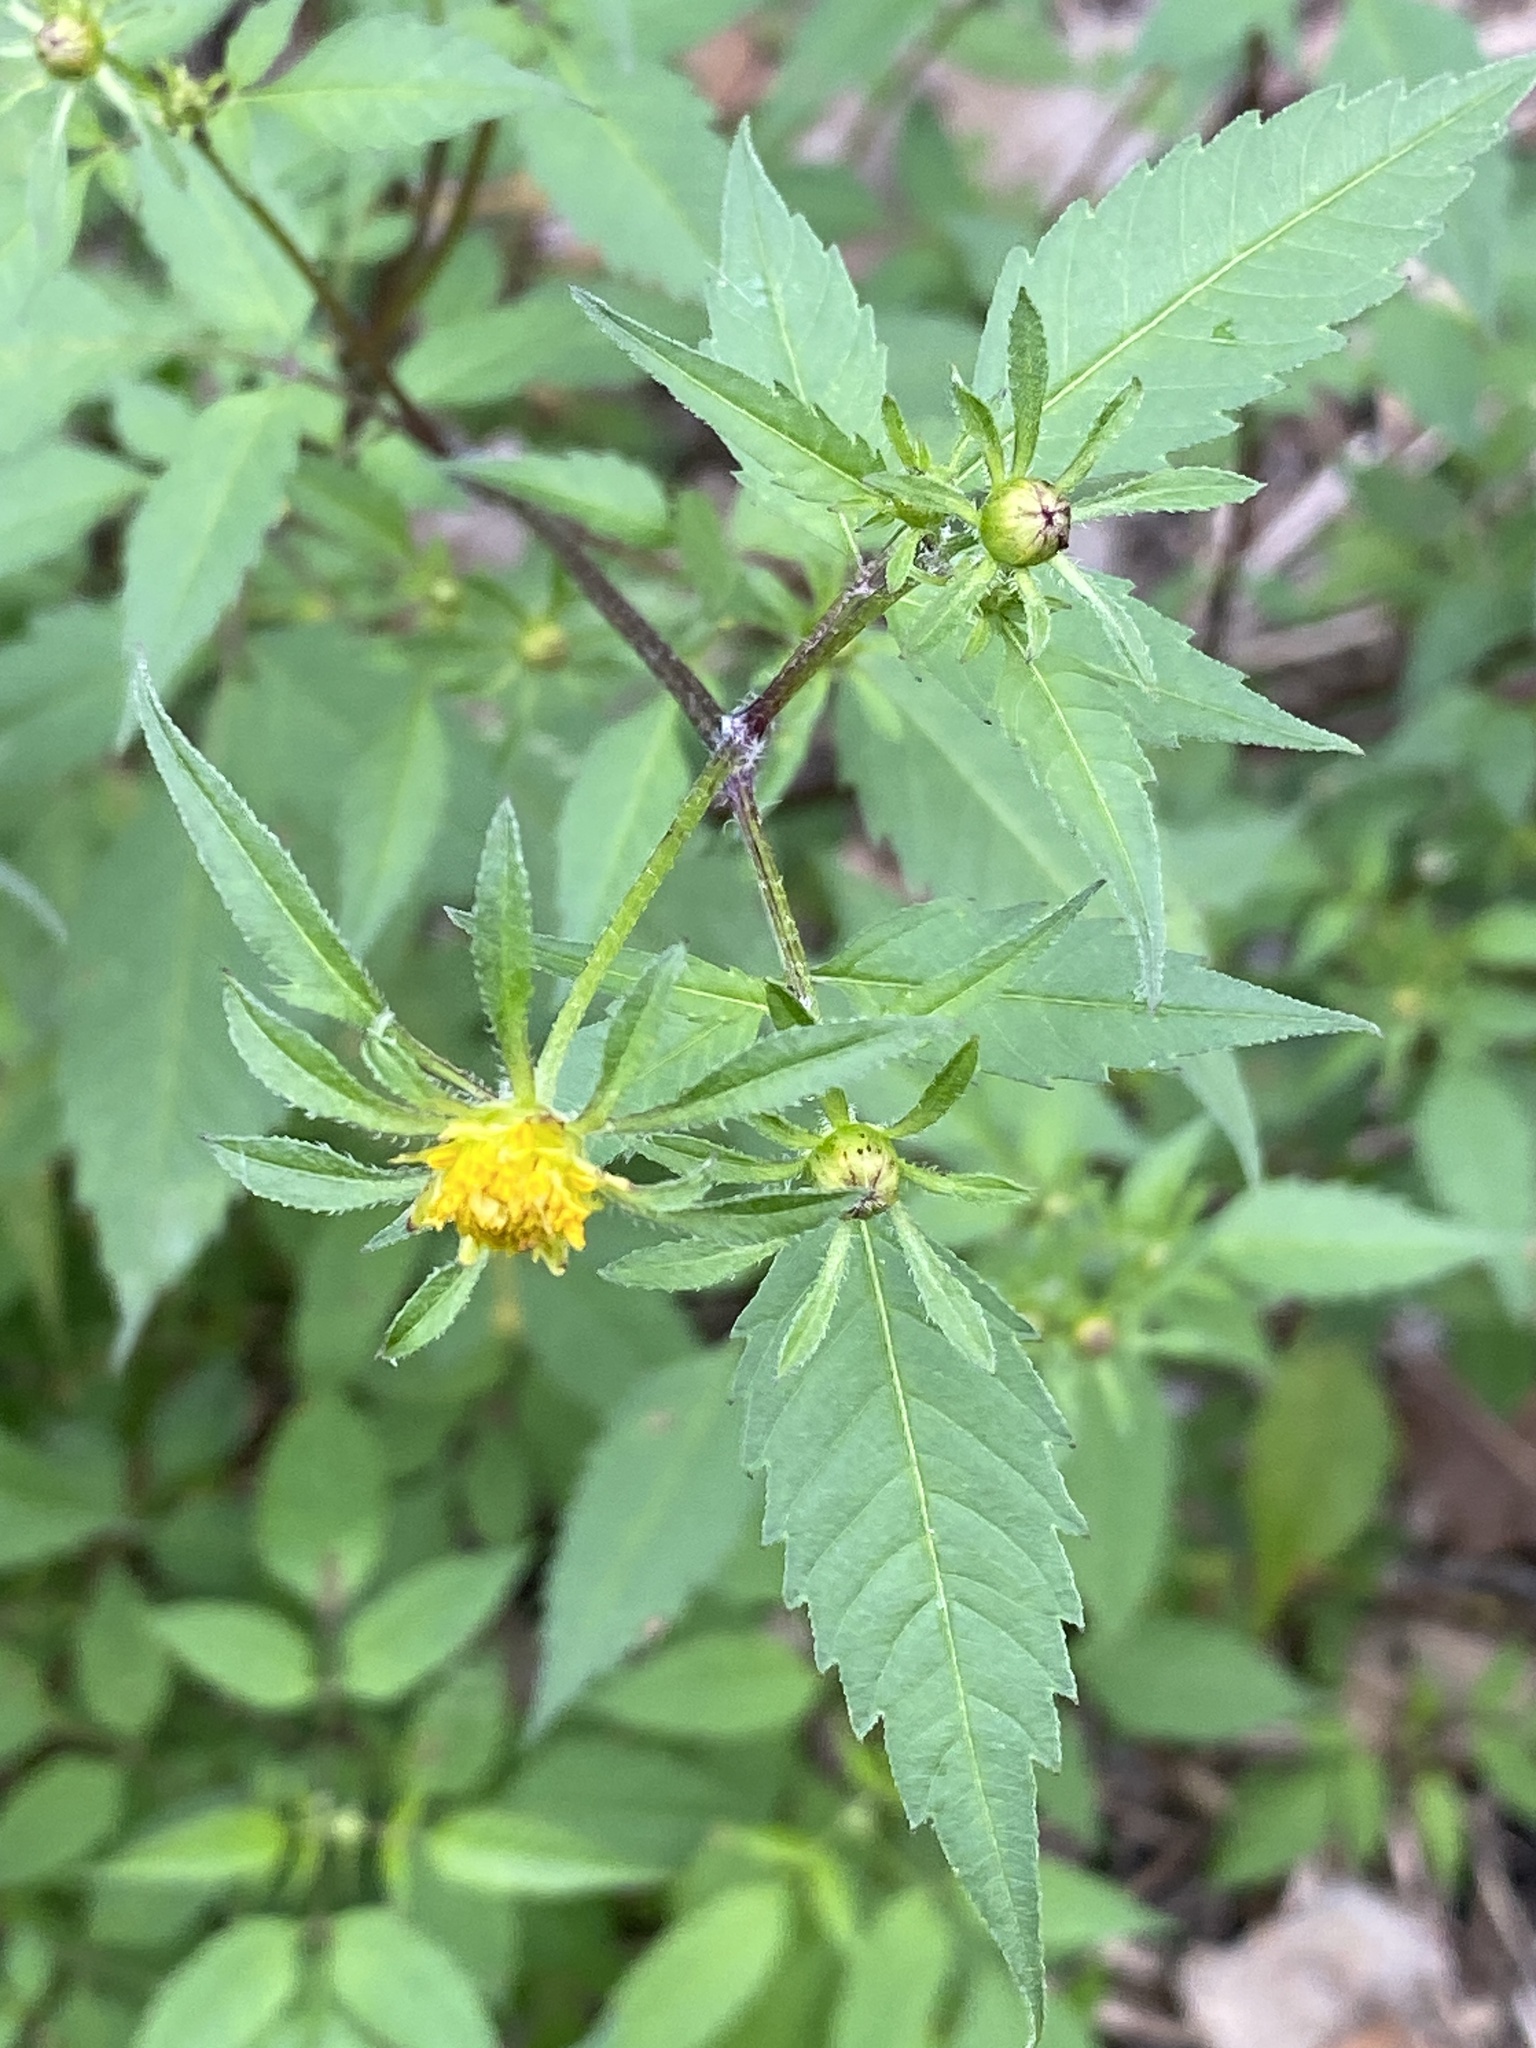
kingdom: Plantae
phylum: Tracheophyta
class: Magnoliopsida
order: Asterales
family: Asteraceae
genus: Bidens
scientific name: Bidens frondosa
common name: Beggarticks
